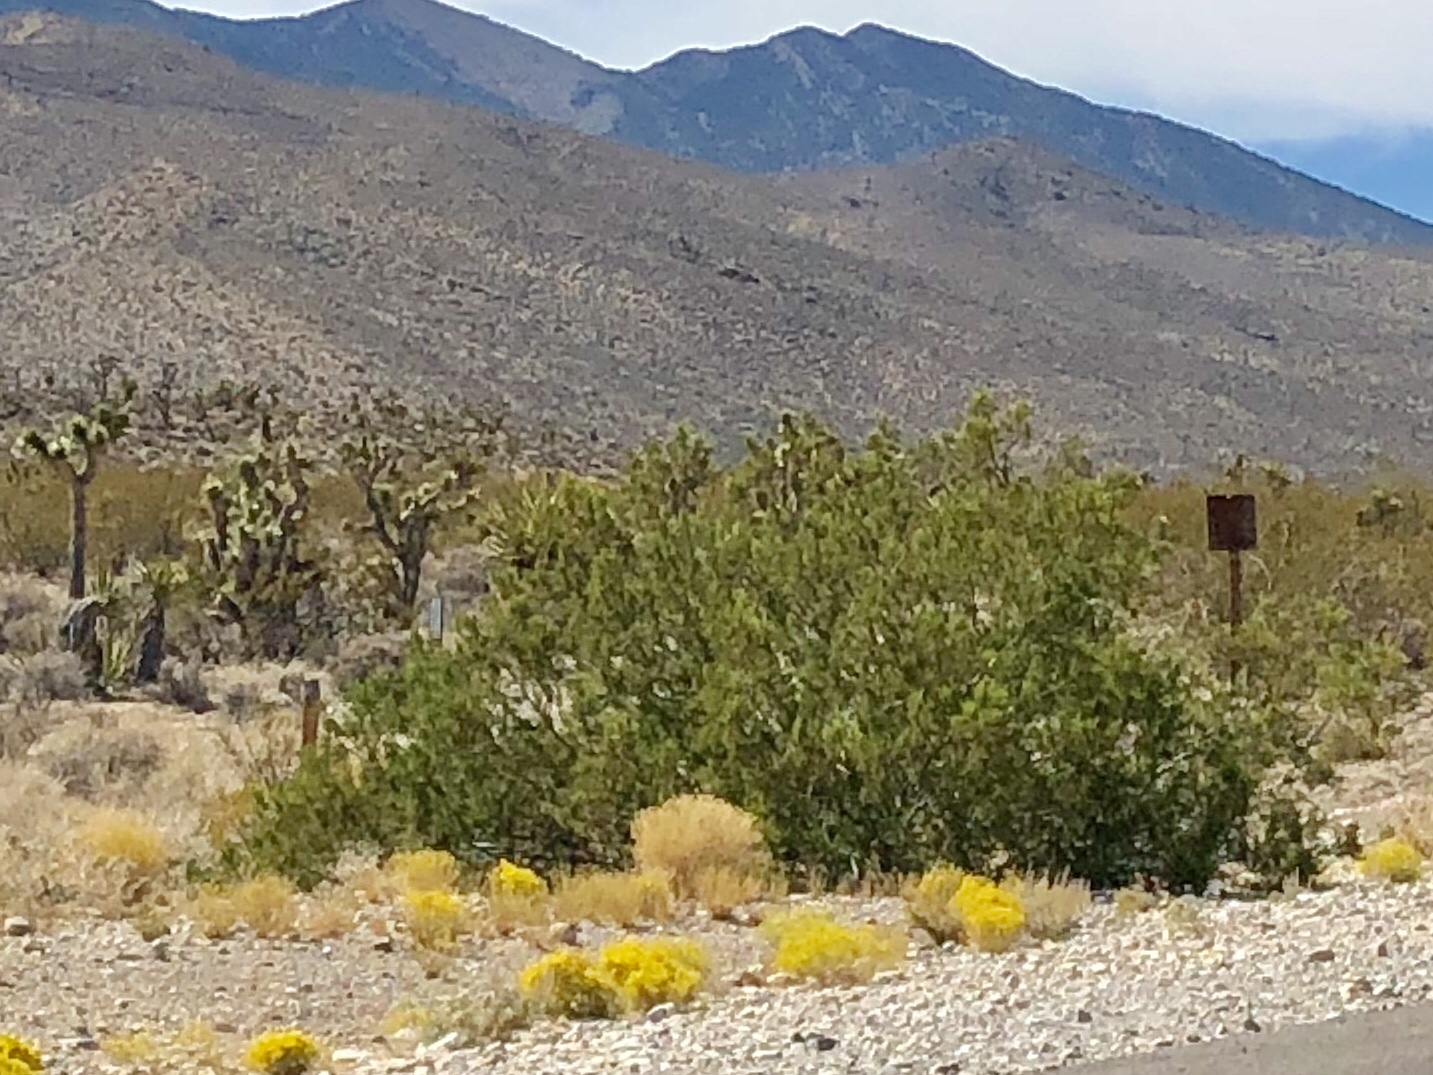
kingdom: Plantae
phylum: Tracheophyta
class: Magnoliopsida
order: Zygophyllales
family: Zygophyllaceae
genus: Larrea
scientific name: Larrea tridentata
